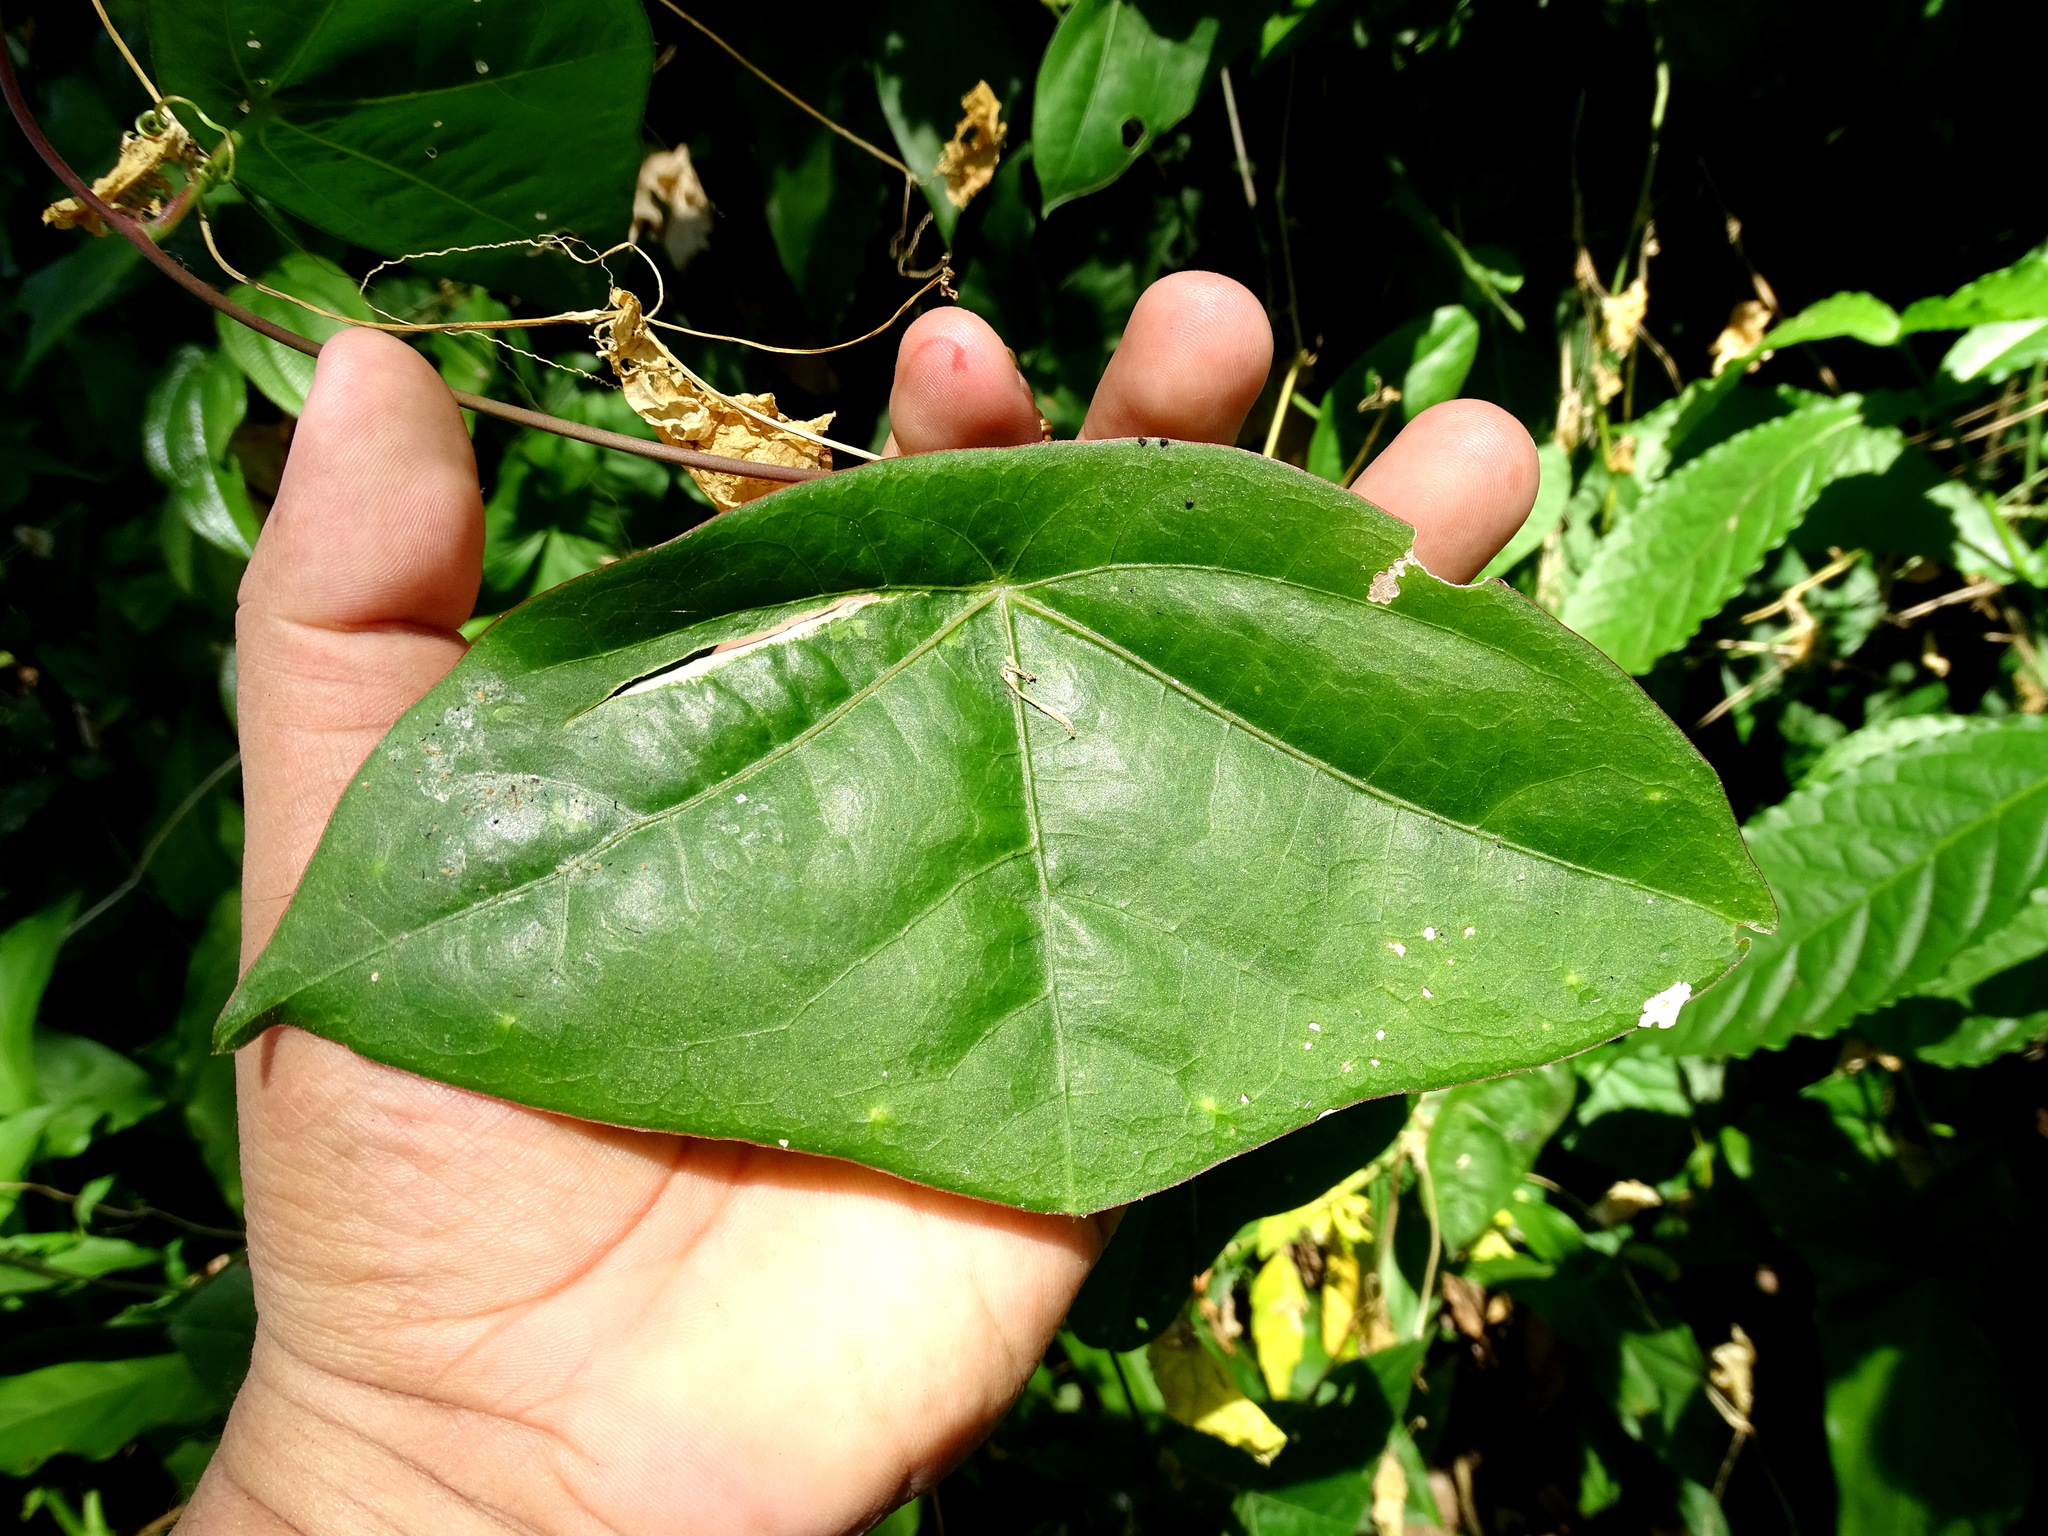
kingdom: Plantae
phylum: Tracheophyta
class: Magnoliopsida
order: Malpighiales
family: Passifloraceae
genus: Passiflora
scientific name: Passiflora sexocellata
